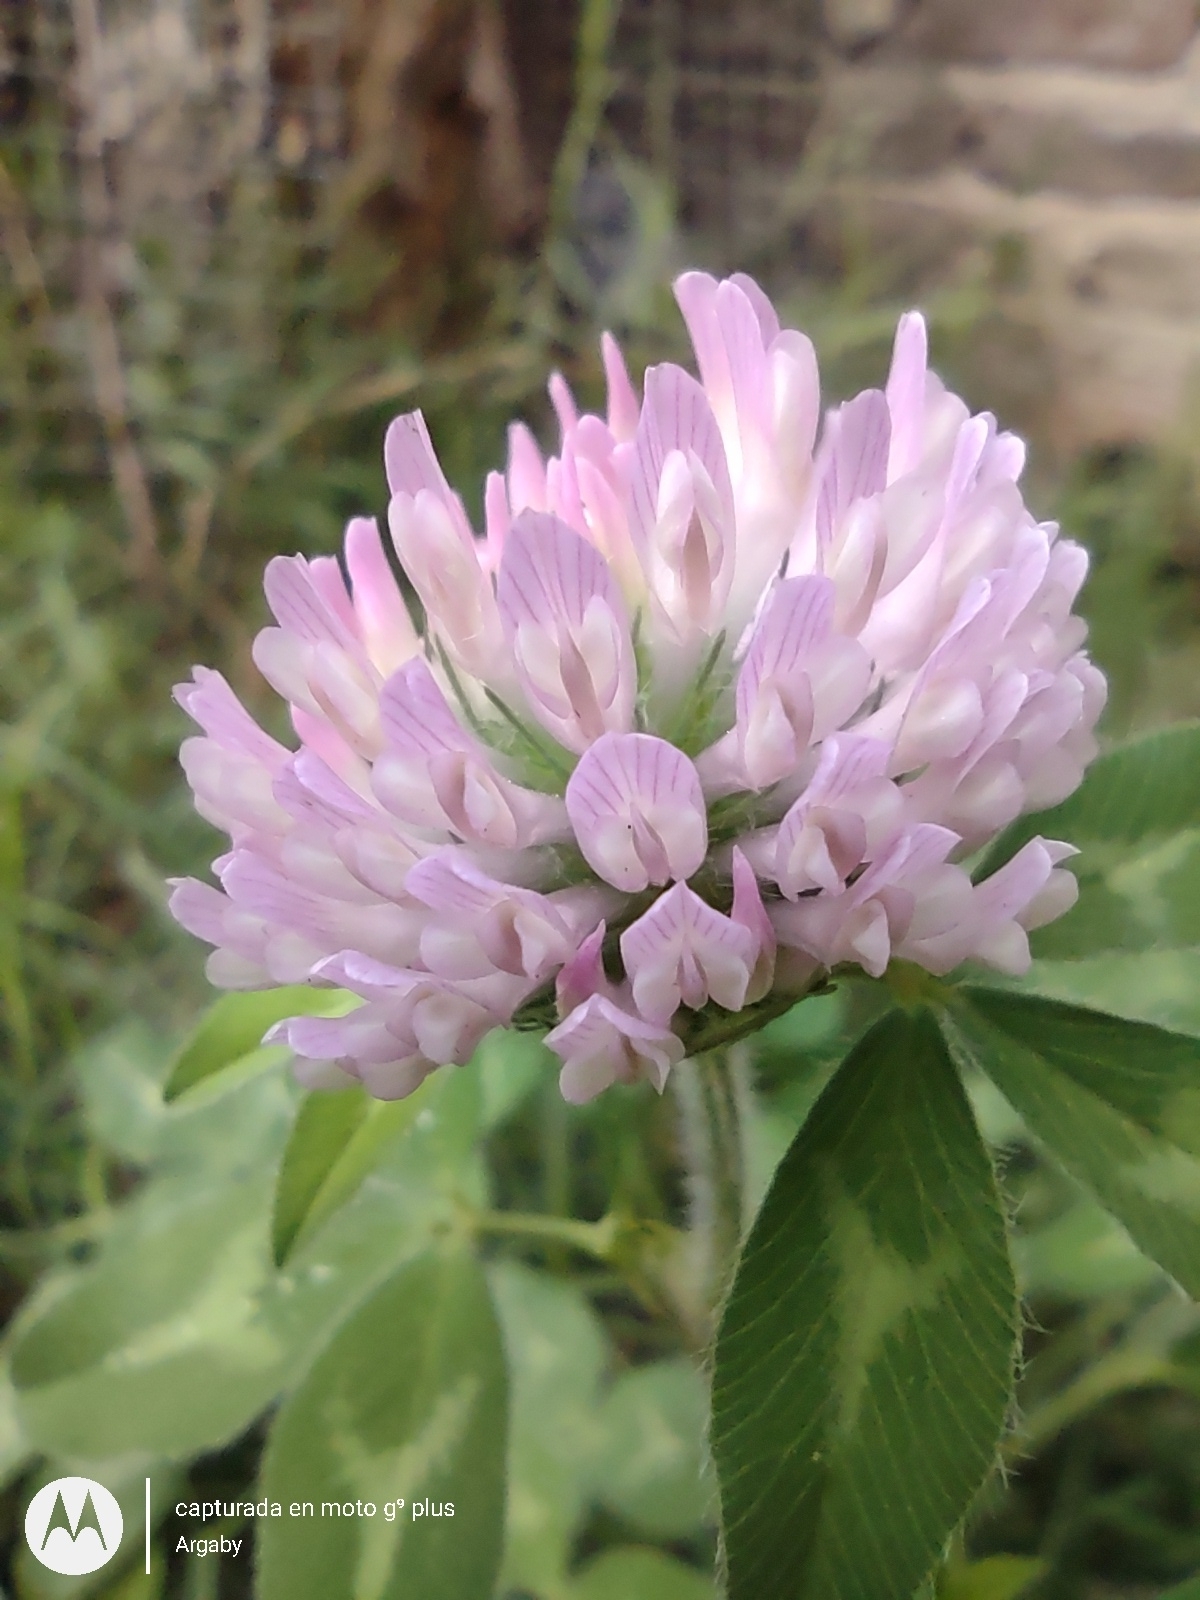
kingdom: Plantae
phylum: Tracheophyta
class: Magnoliopsida
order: Fabales
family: Fabaceae
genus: Trifolium
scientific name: Trifolium pratense
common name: Red clover
